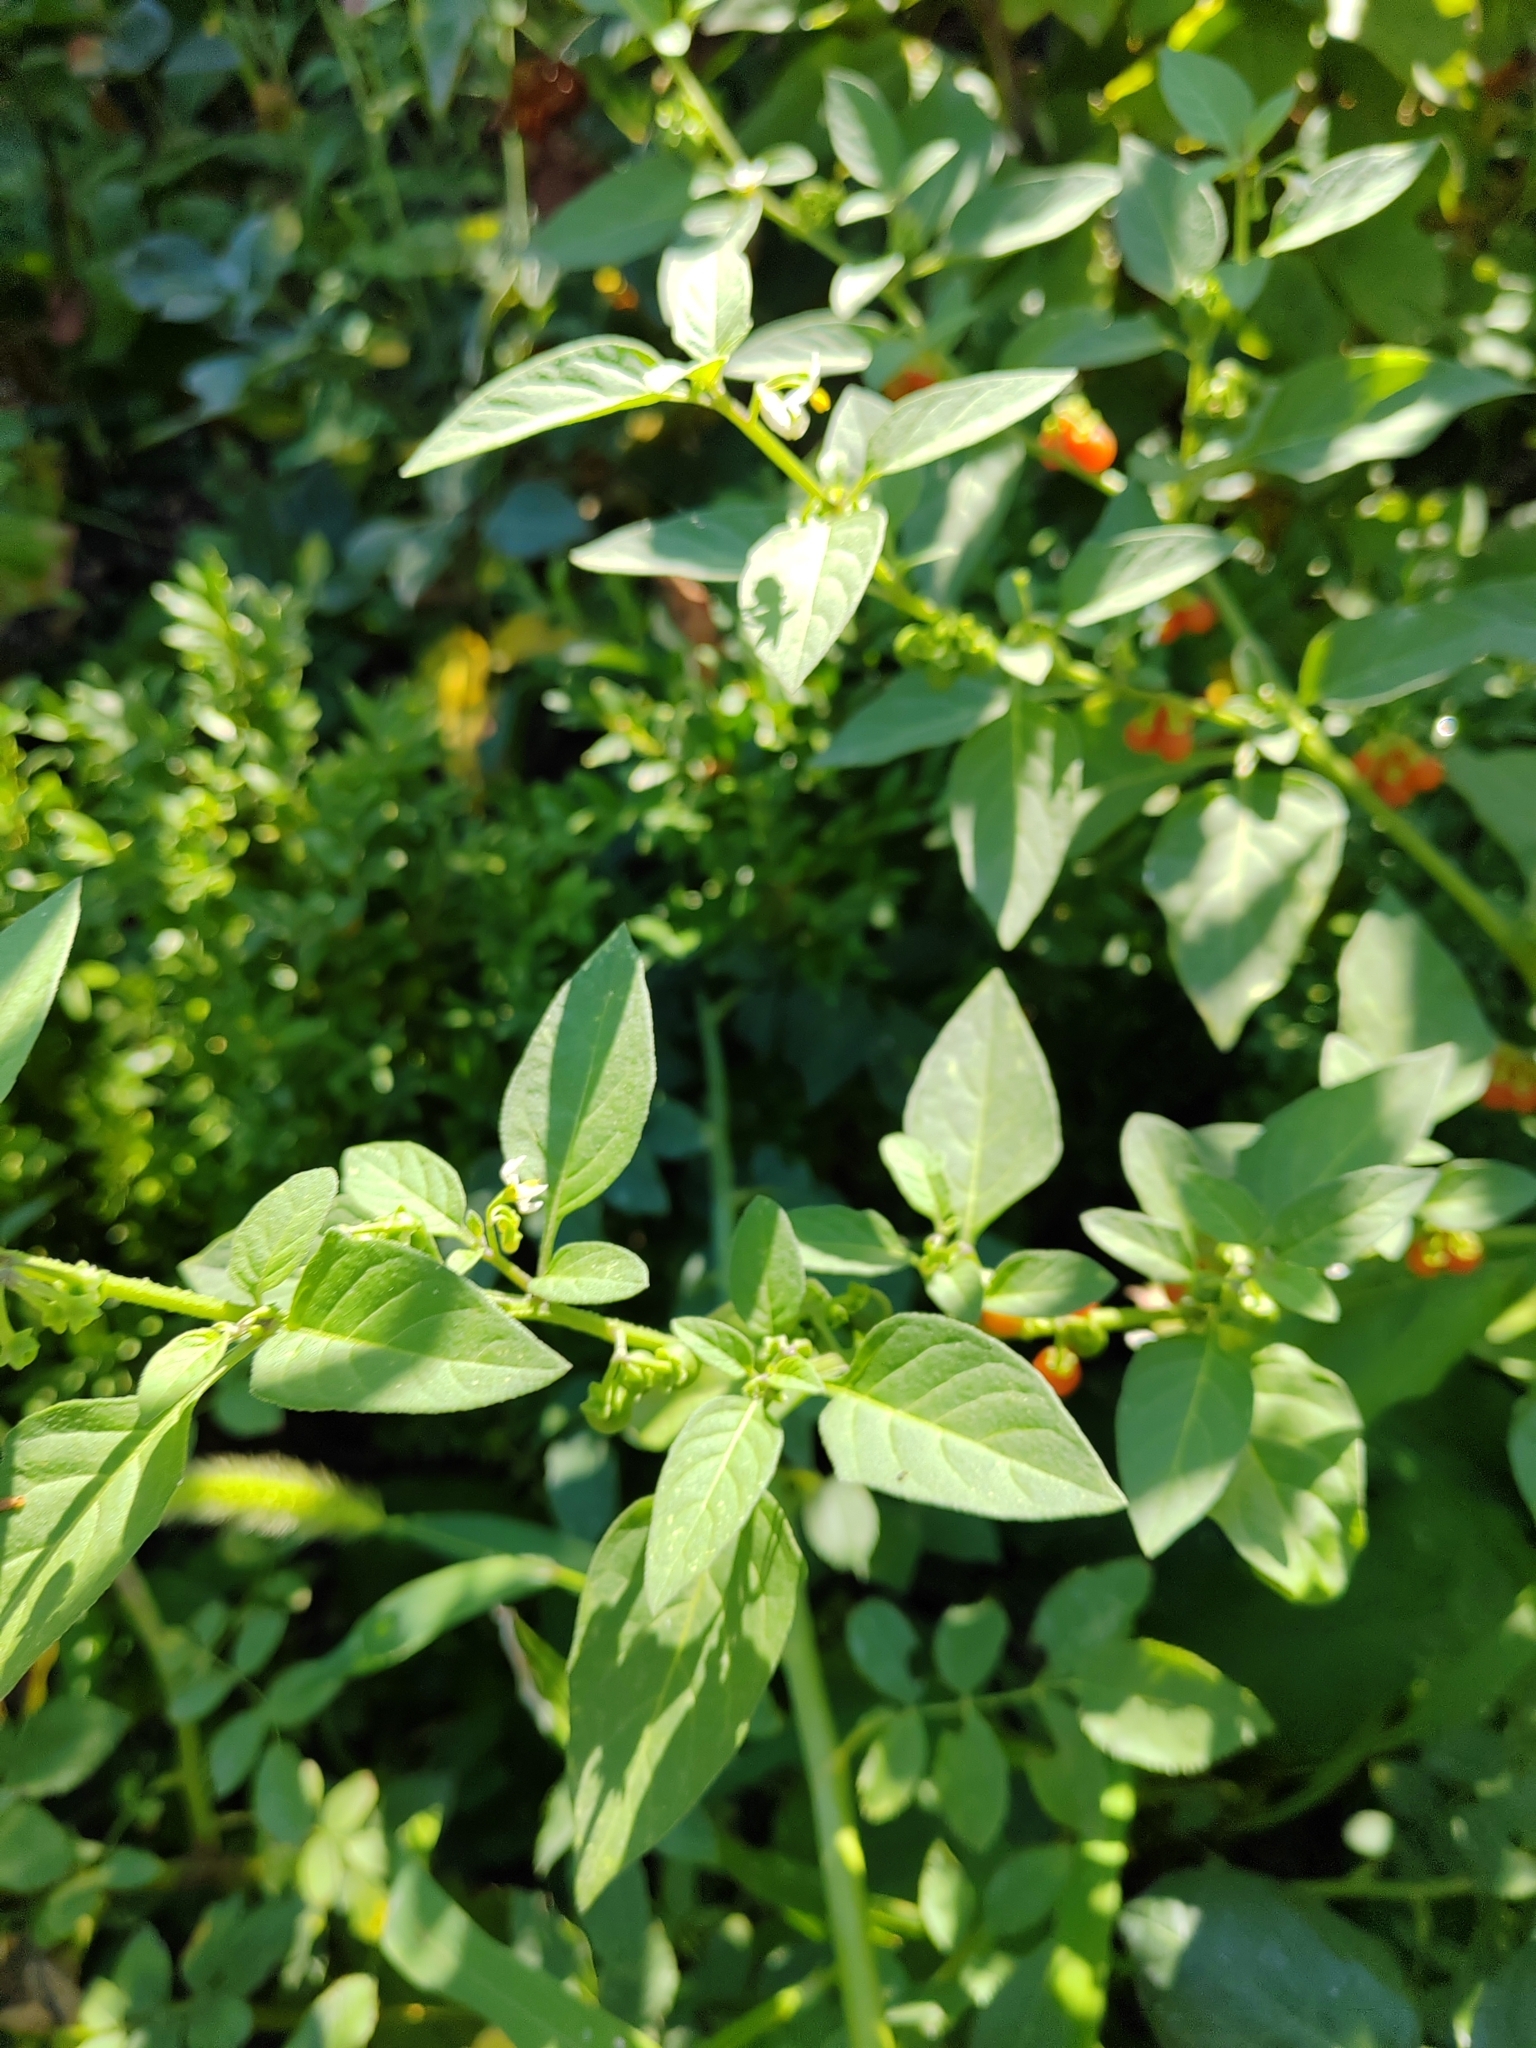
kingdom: Plantae
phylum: Tracheophyta
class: Magnoliopsida
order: Solanales
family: Solanaceae
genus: Solanum
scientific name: Solanum villosum
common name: Red nightshade
